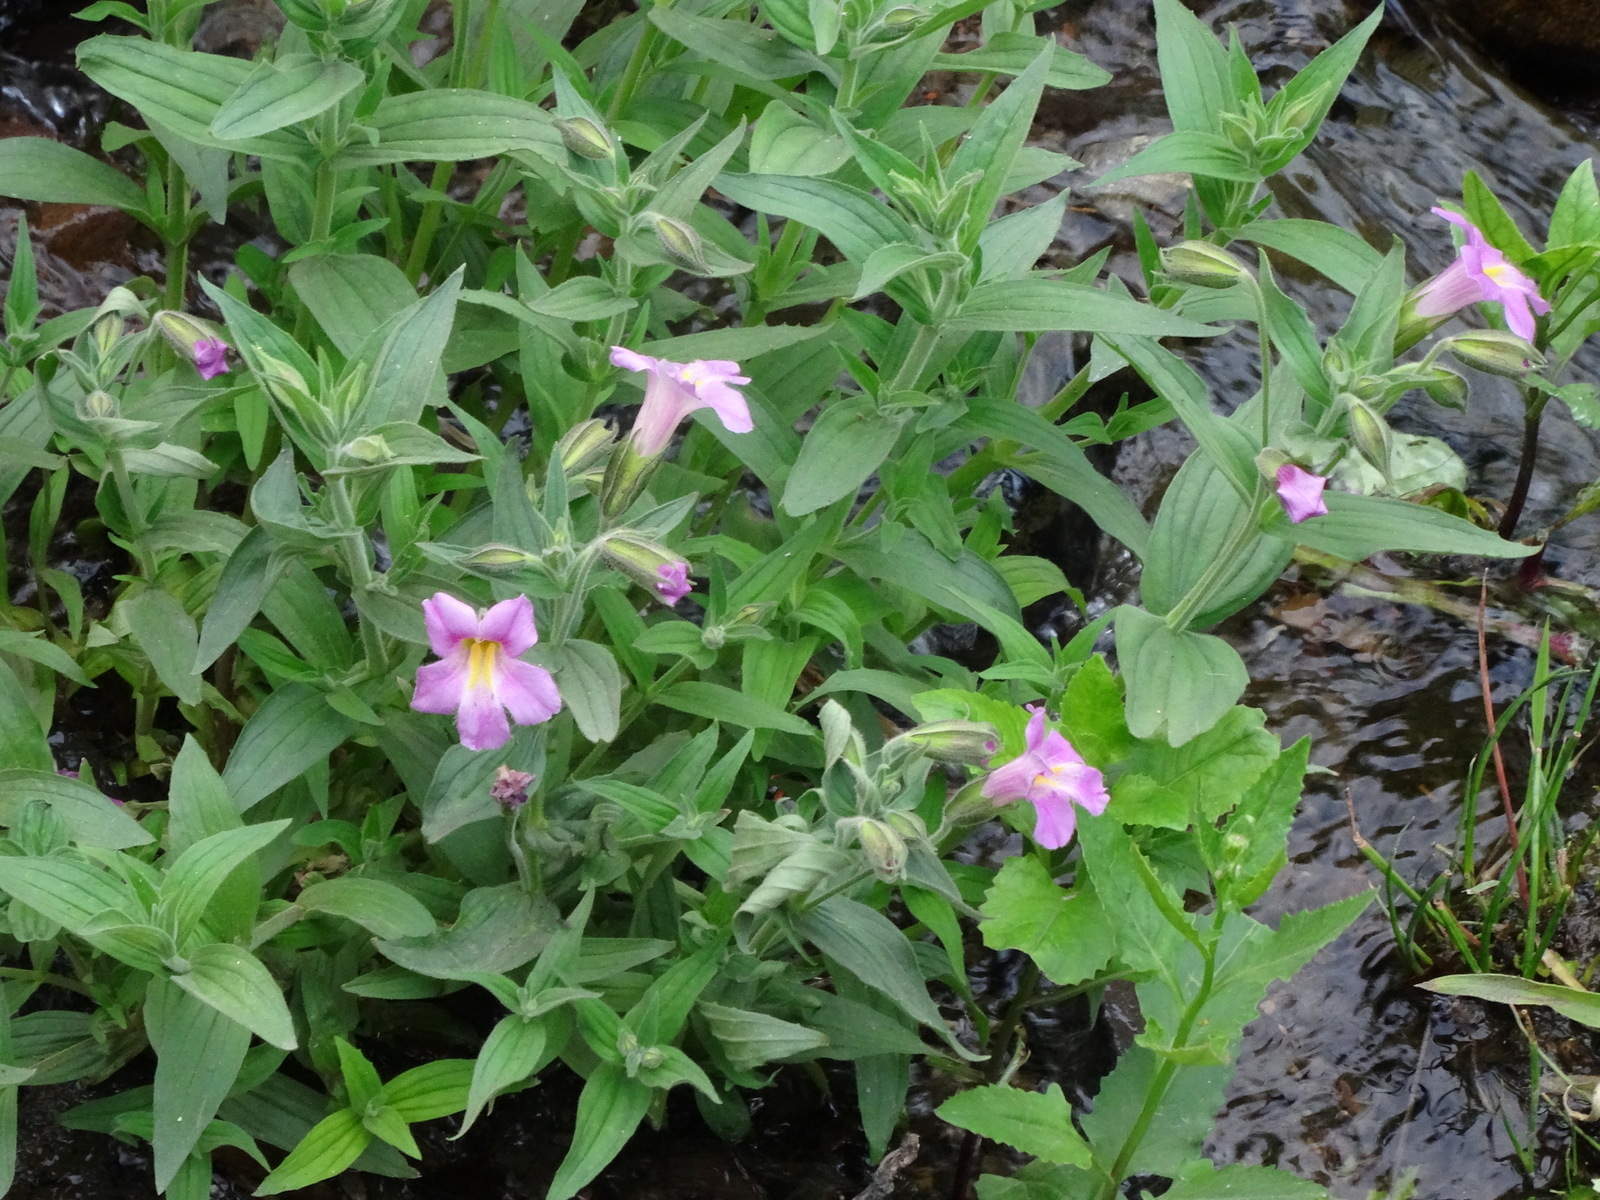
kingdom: Plantae
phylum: Tracheophyta
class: Magnoliopsida
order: Lamiales
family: Phrymaceae
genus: Erythranthe
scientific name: Erythranthe lewisii
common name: Lewis's monkey-flower
